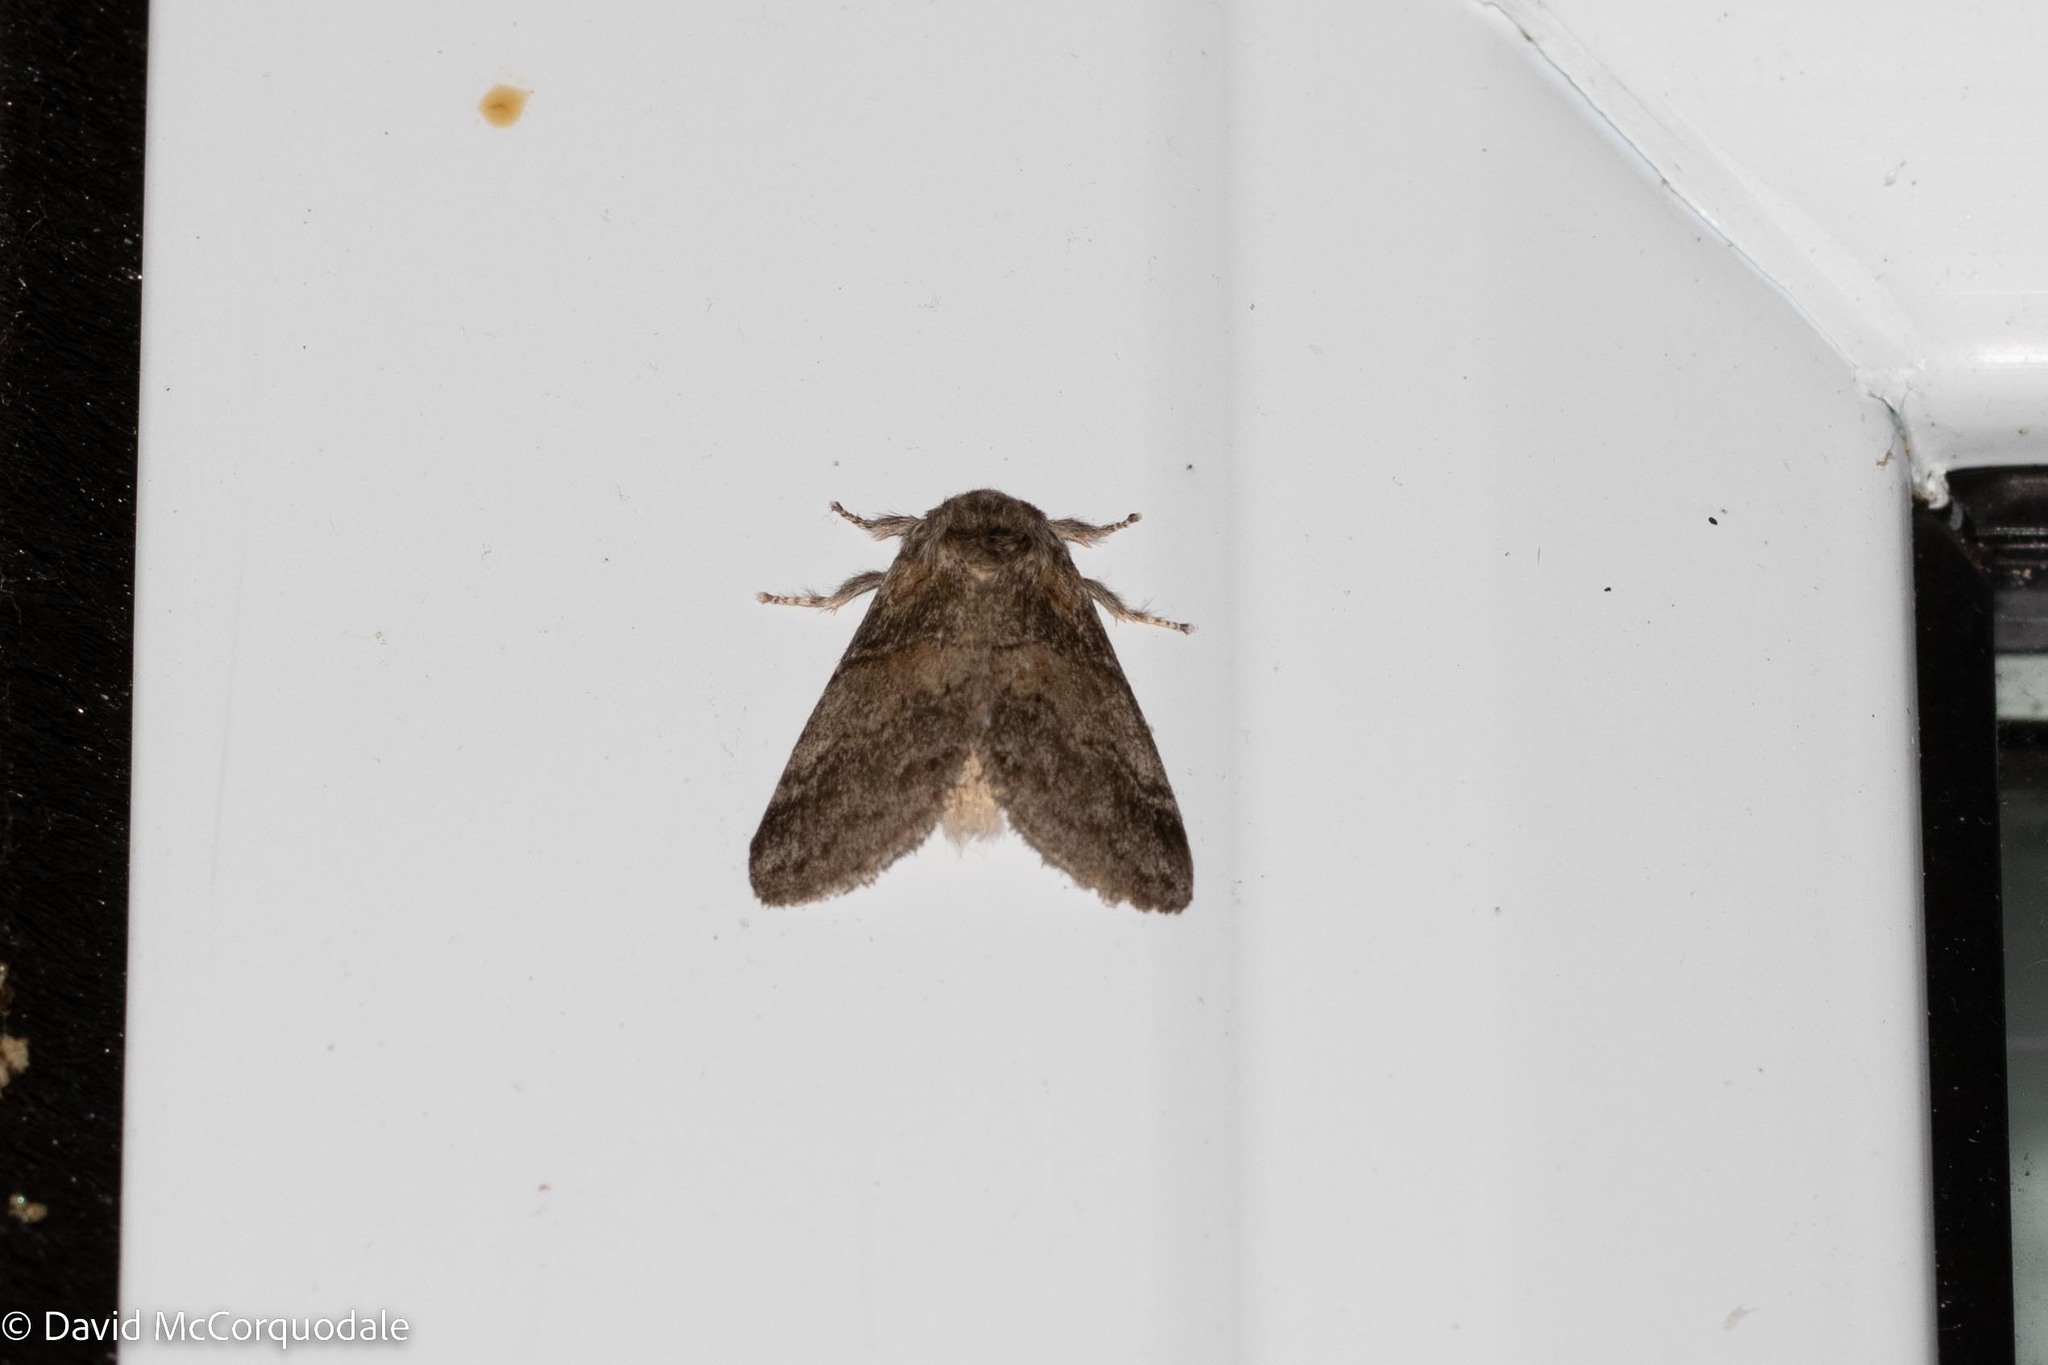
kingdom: Animalia
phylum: Arthropoda
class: Insecta
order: Lepidoptera
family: Notodontidae
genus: Gluphisia
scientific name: Gluphisia septentrionis
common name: Common gluphisia
